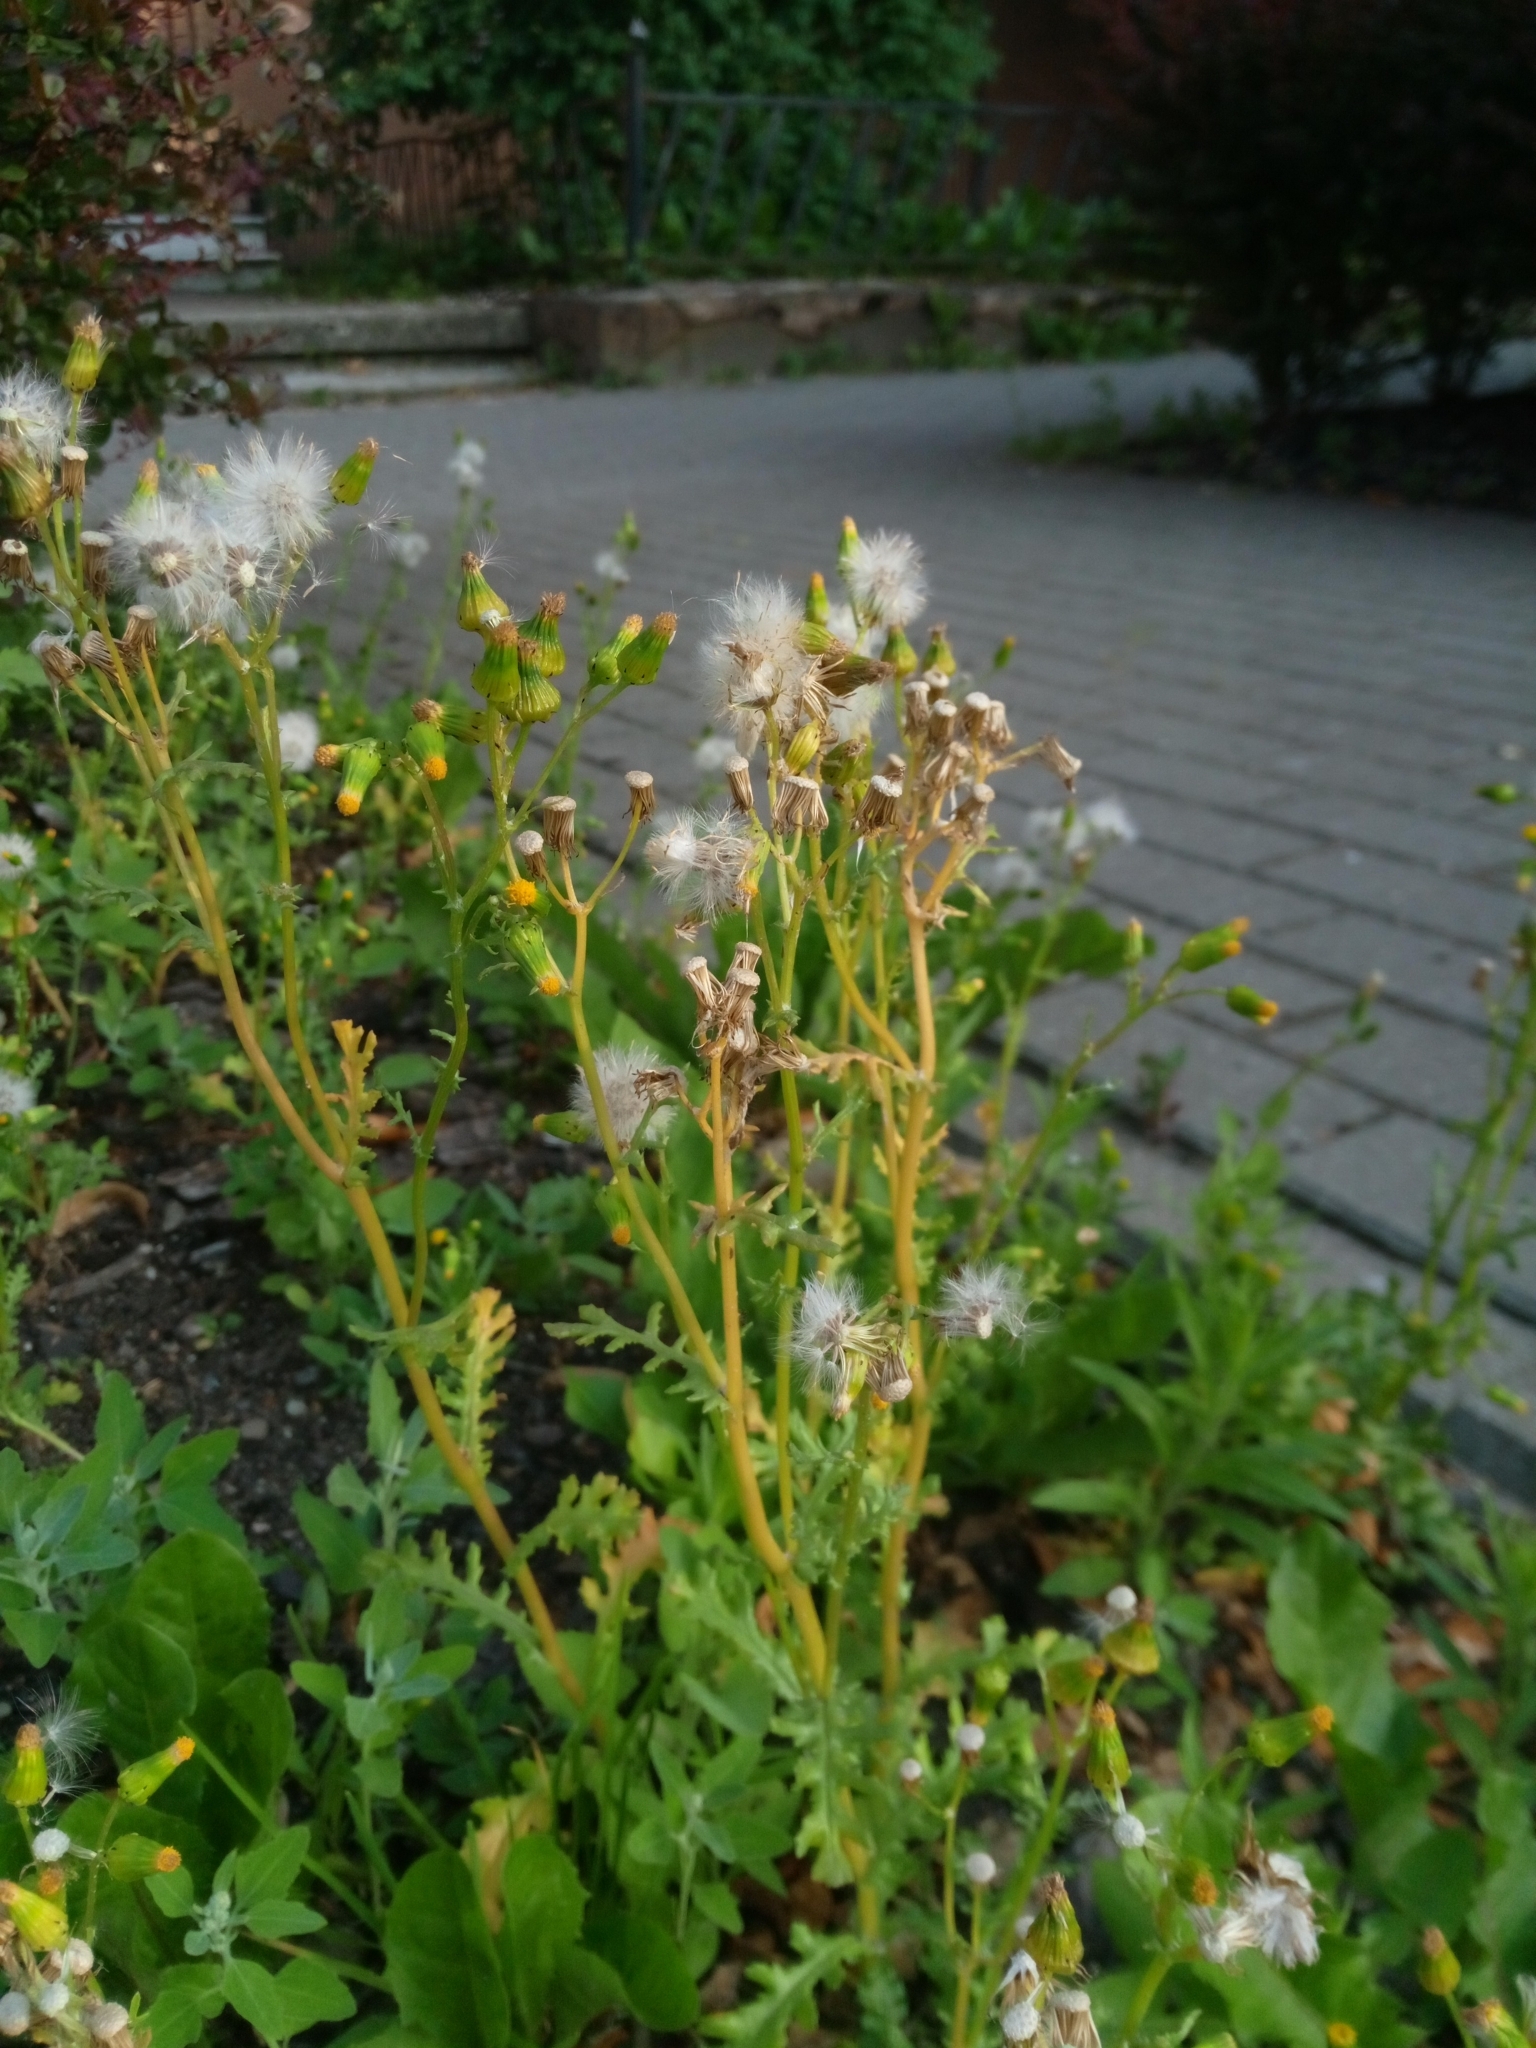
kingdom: Plantae
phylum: Tracheophyta
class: Magnoliopsida
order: Asterales
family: Asteraceae
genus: Senecio
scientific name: Senecio vulgaris
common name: Old-man-in-the-spring
